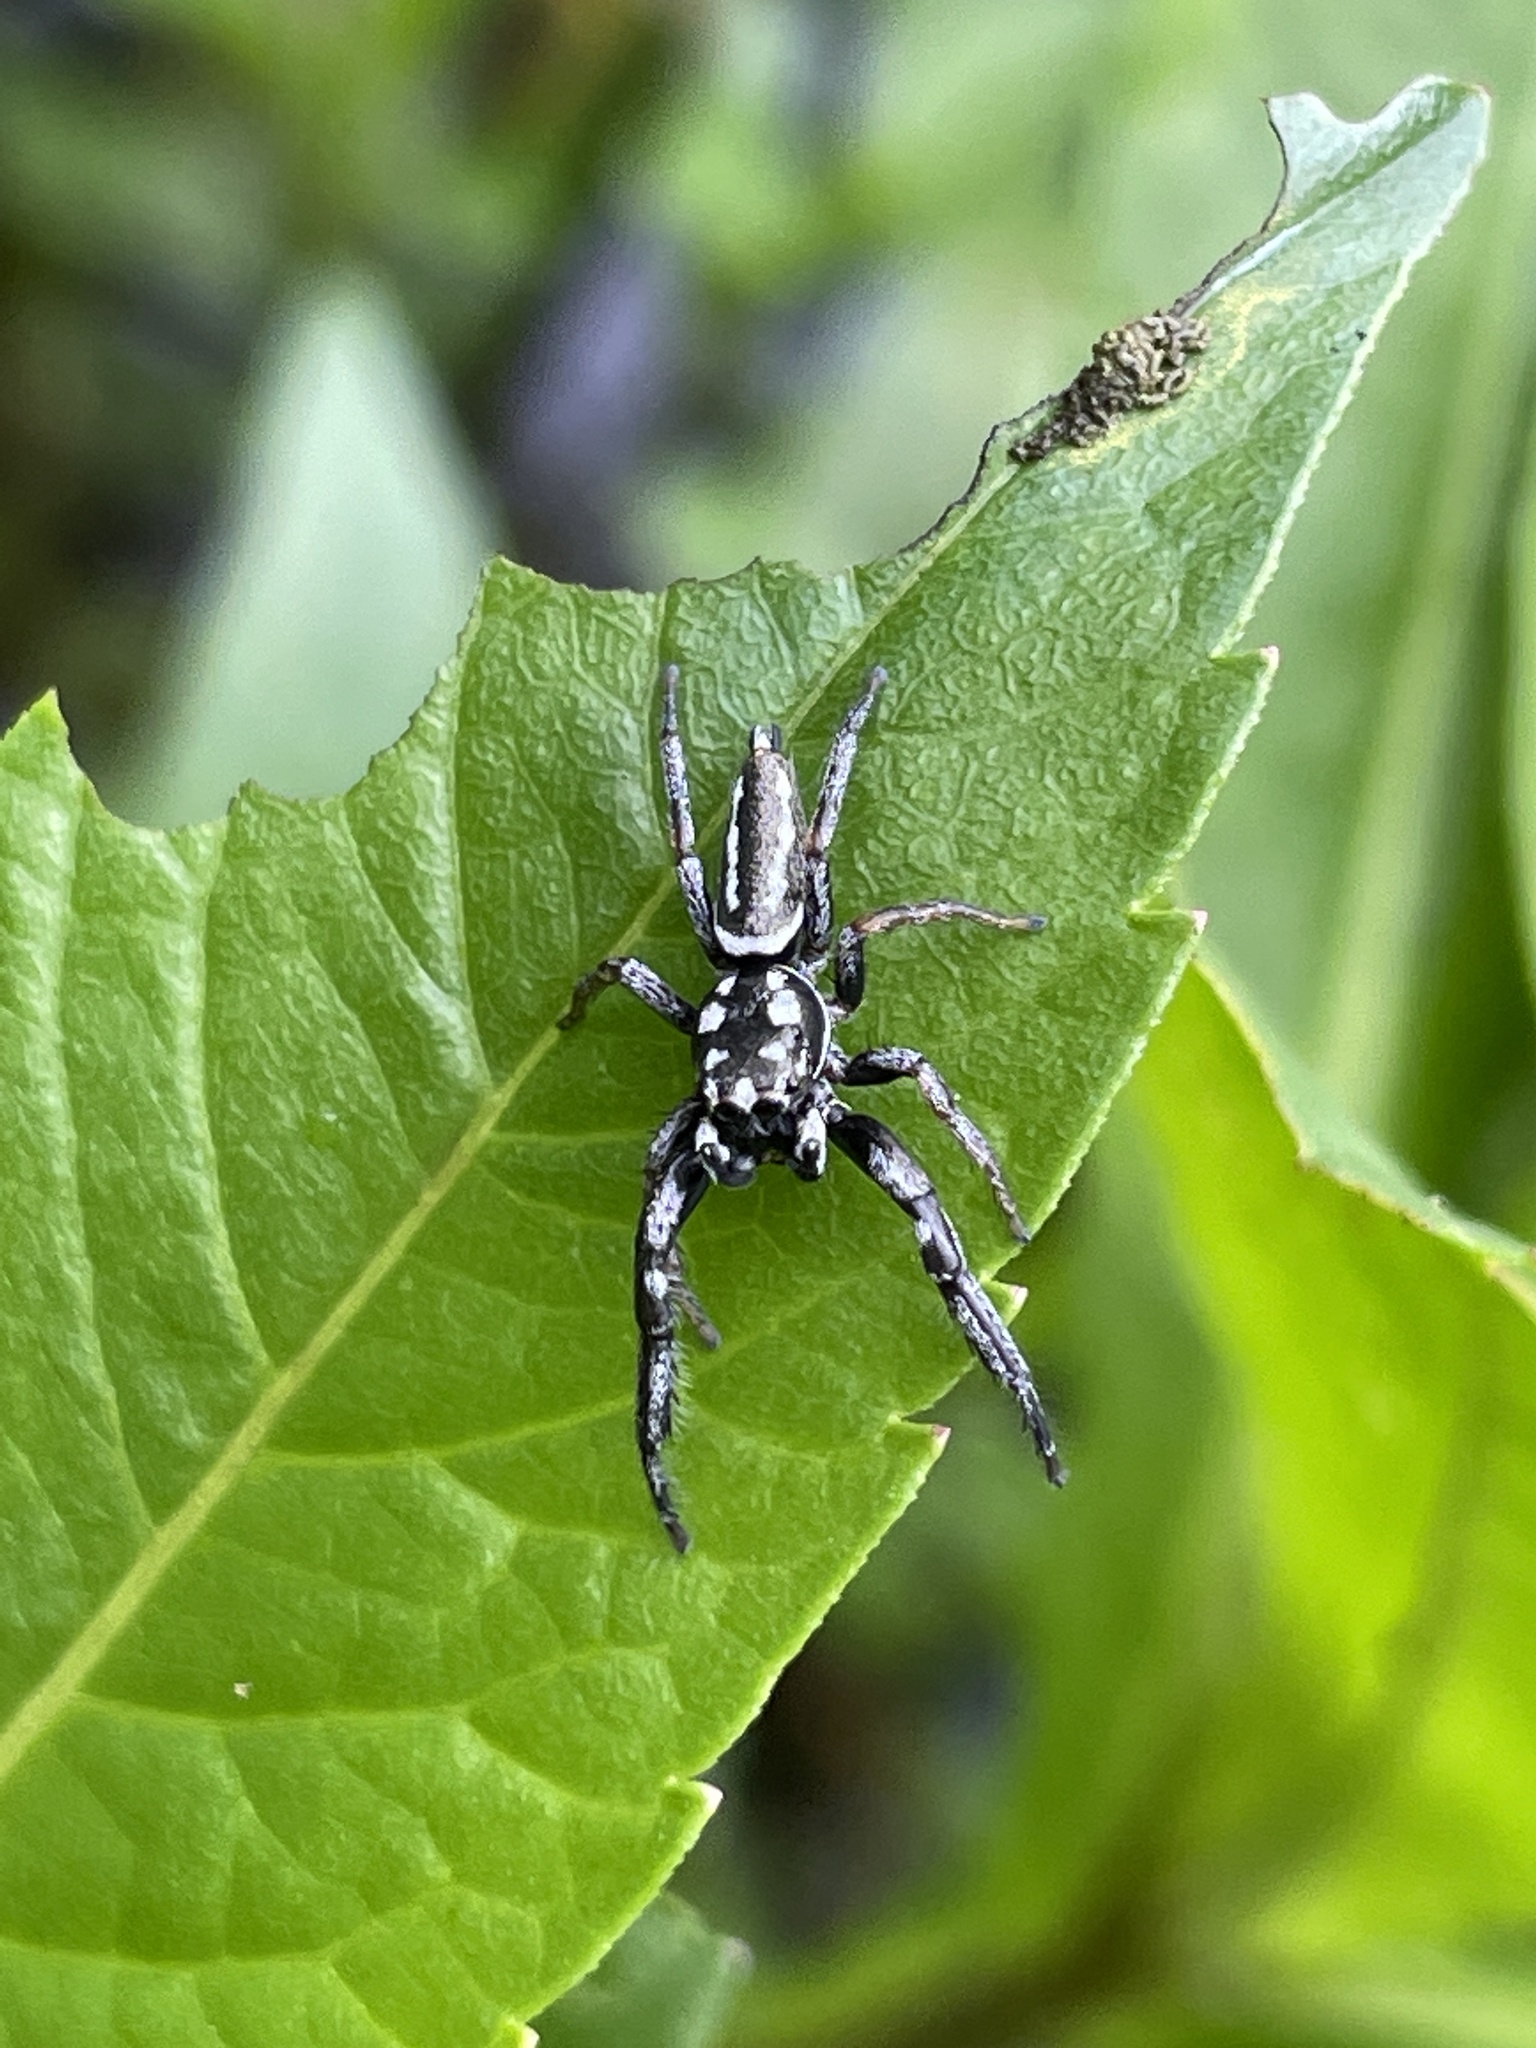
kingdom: Animalia
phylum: Arthropoda
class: Arachnida
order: Araneae
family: Salticidae
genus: Marpissa
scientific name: Marpissa formosa
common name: Short-bellied slender jumping spider
